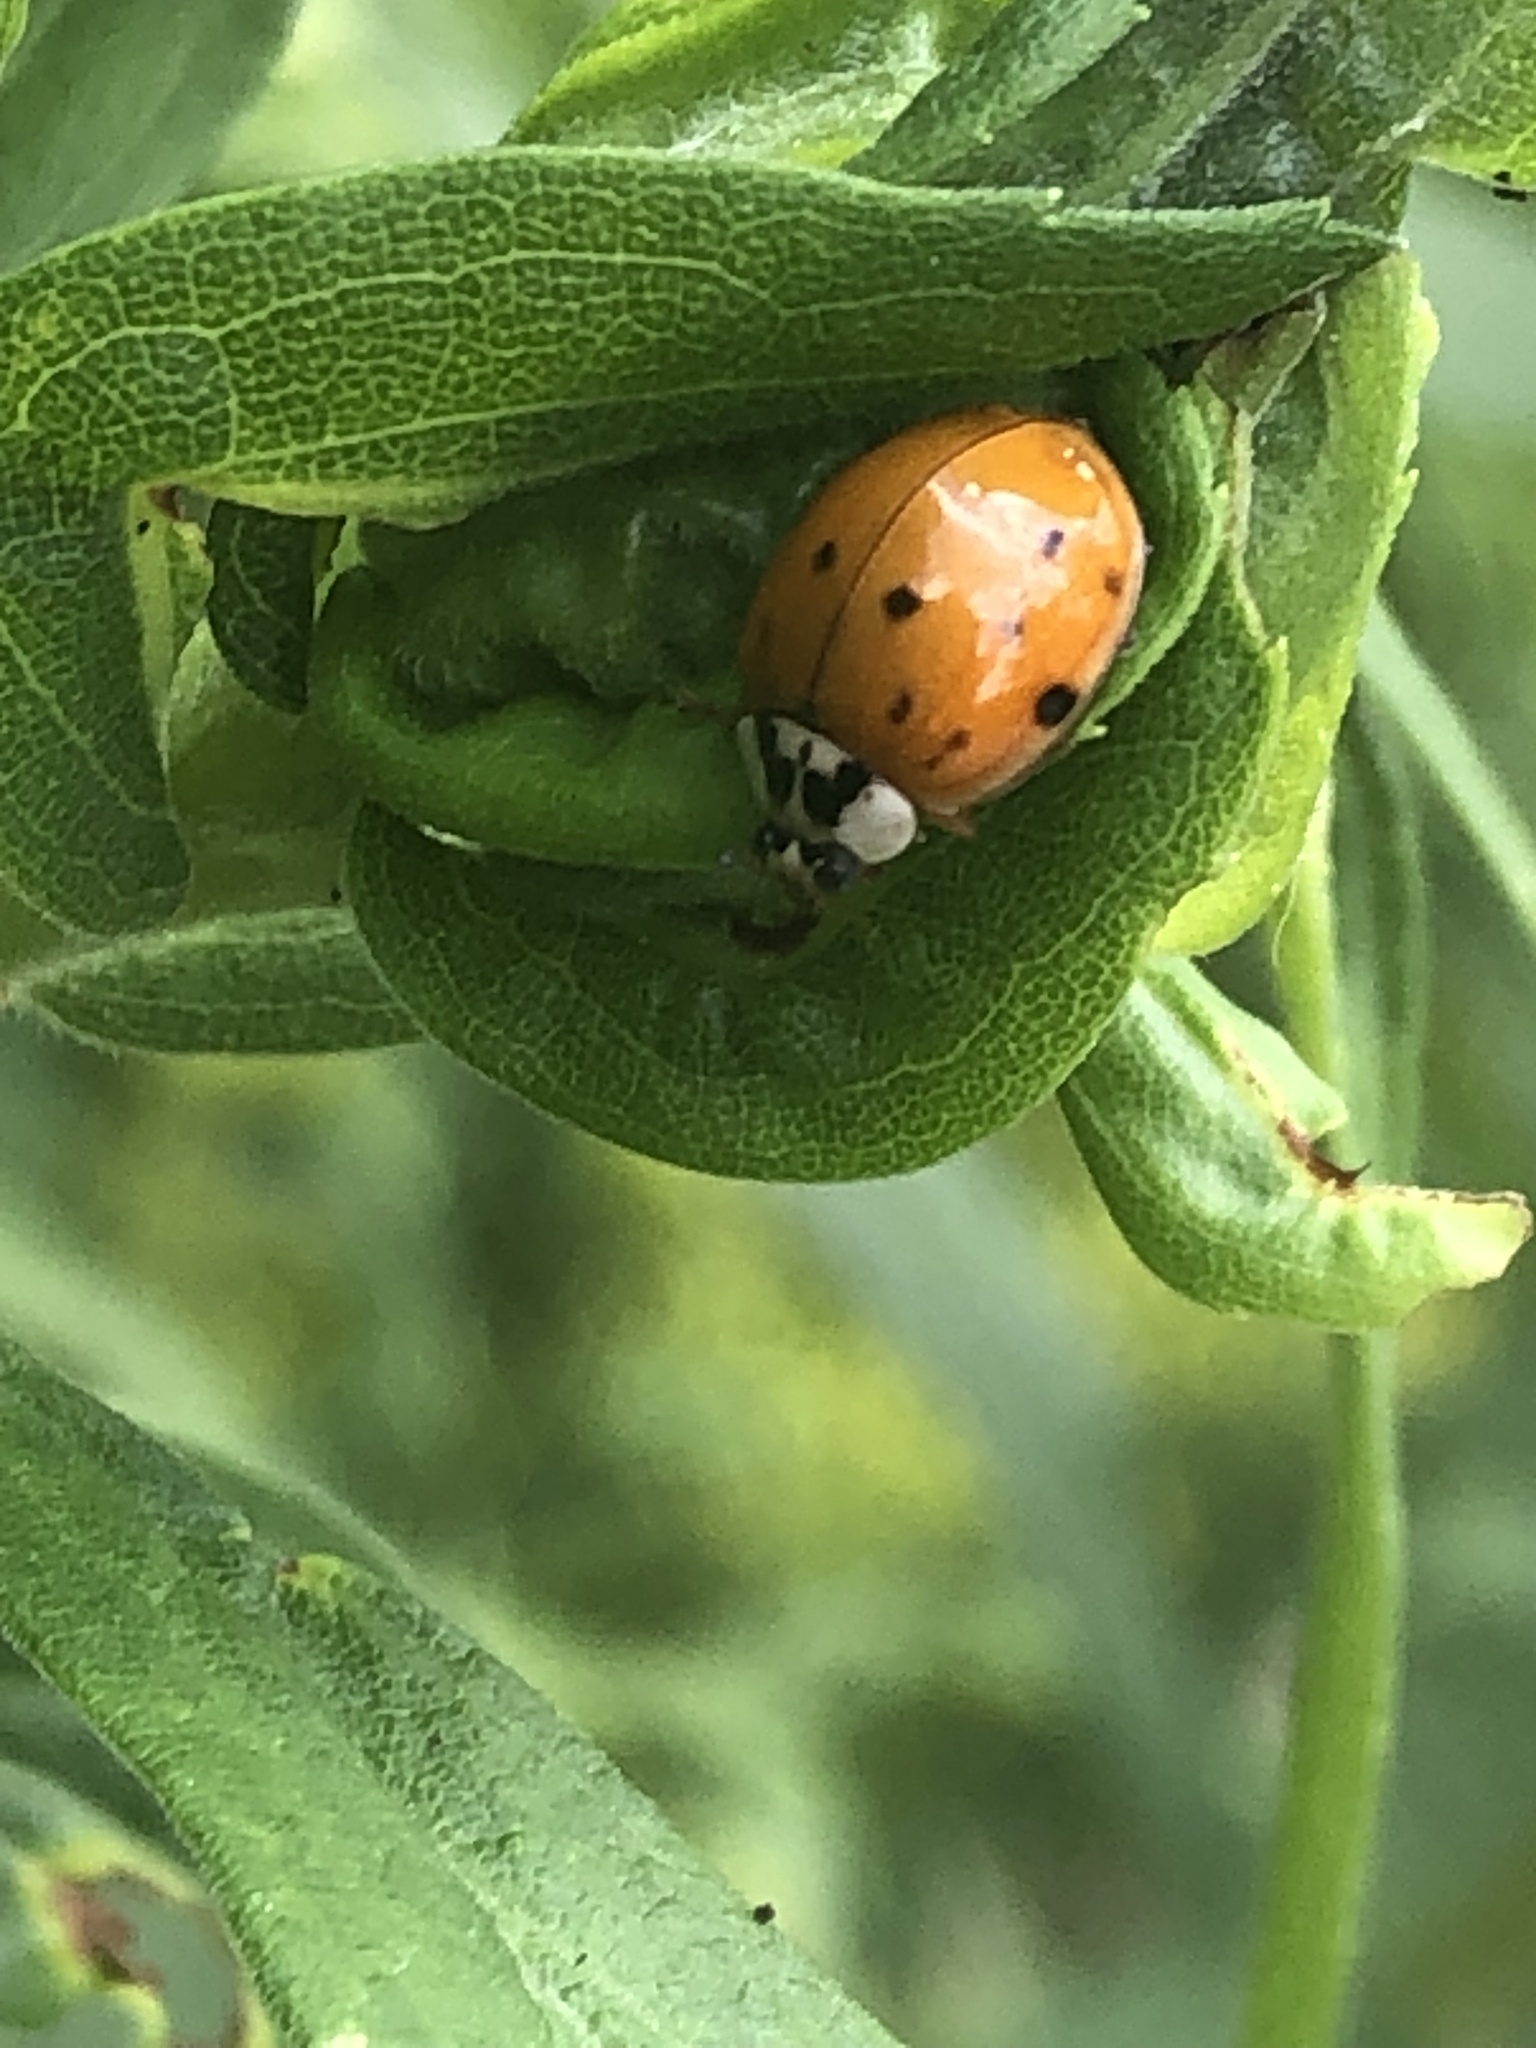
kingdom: Animalia
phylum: Arthropoda
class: Insecta
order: Coleoptera
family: Coccinellidae
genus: Harmonia
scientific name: Harmonia axyridis
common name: Harlequin ladybird
